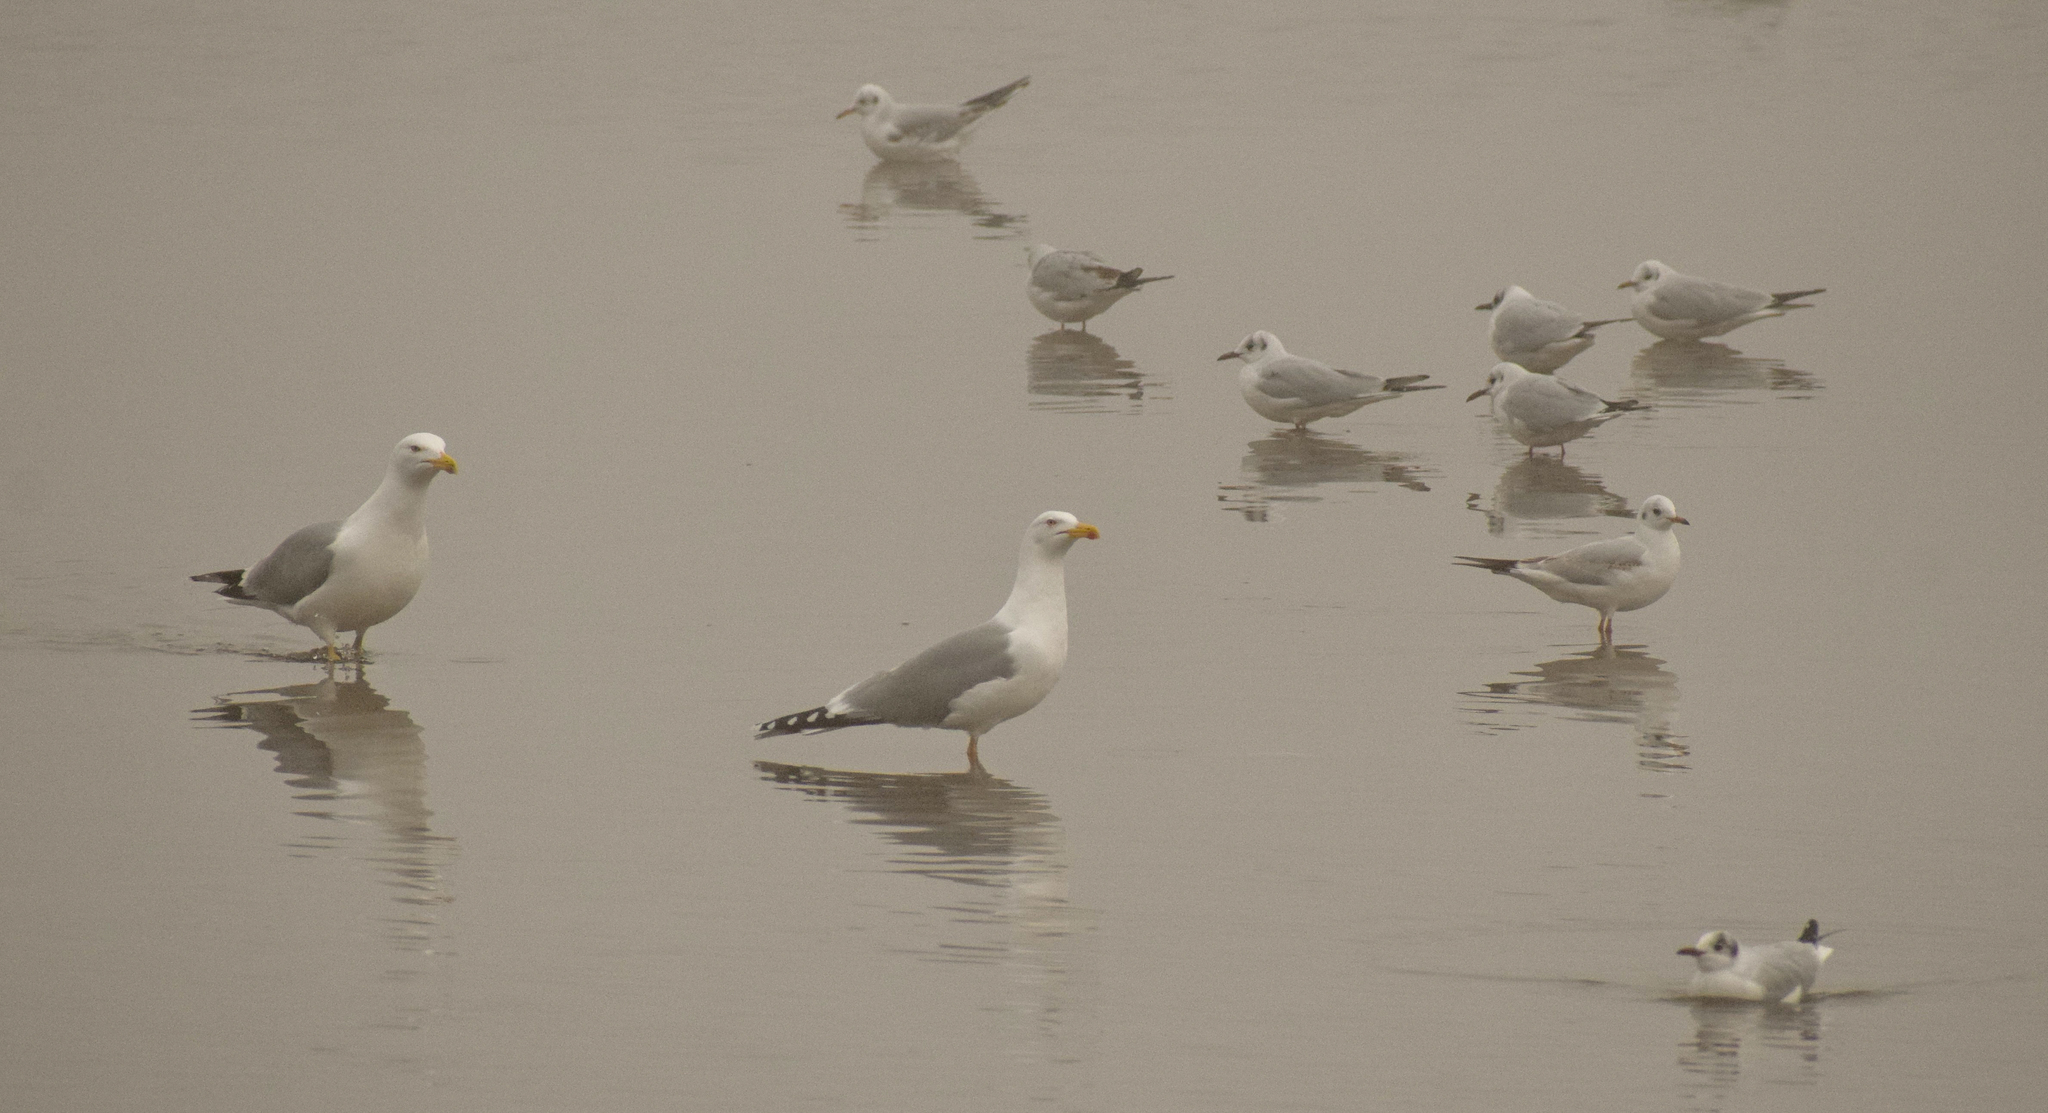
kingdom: Animalia
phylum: Chordata
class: Aves
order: Charadriiformes
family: Laridae
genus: Chroicocephalus
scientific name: Chroicocephalus ridibundus
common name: Black-headed gull
